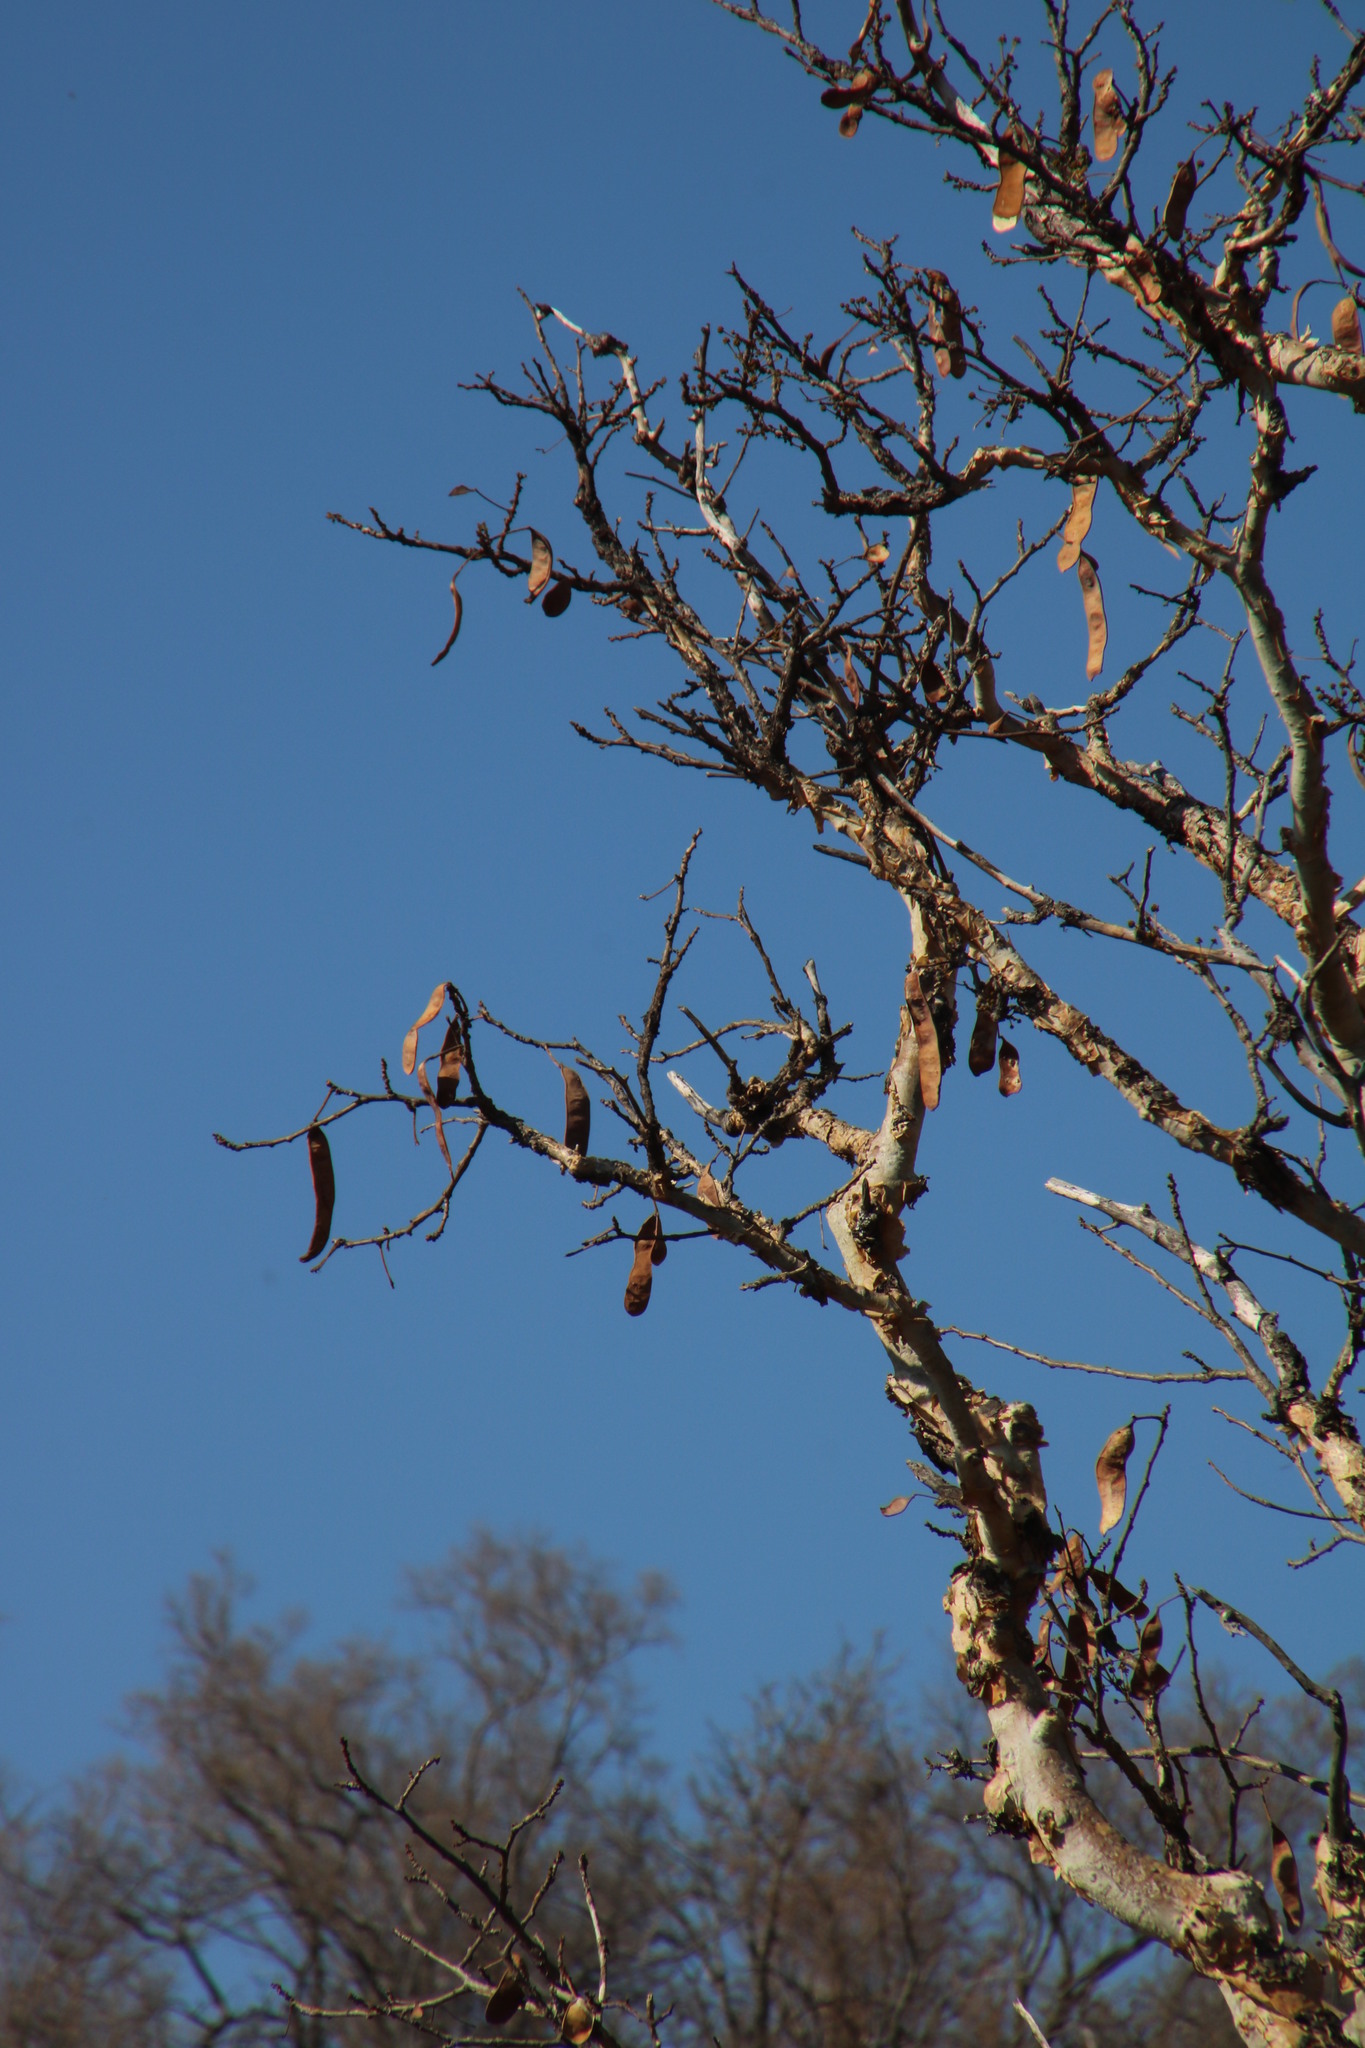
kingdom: Plantae
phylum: Tracheophyta
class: Magnoliopsida
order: Fabales
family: Fabaceae
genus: Albizia
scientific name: Albizia tanganyicensis
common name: Paperbark false thorn
